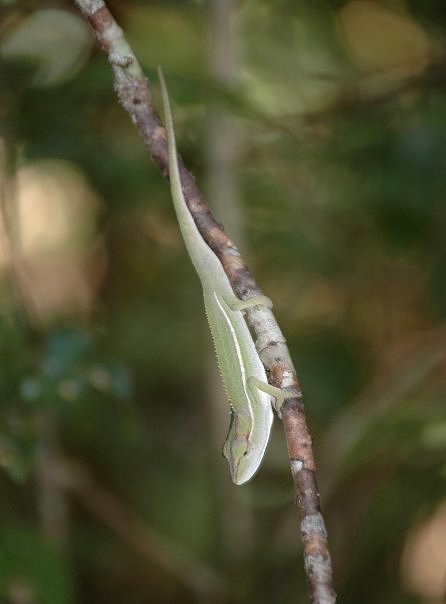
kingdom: Animalia
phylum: Chordata
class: Squamata
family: Chamaeleonidae
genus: Calumma
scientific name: Calumma gastrotaenia
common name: Short-nosed chameleon
